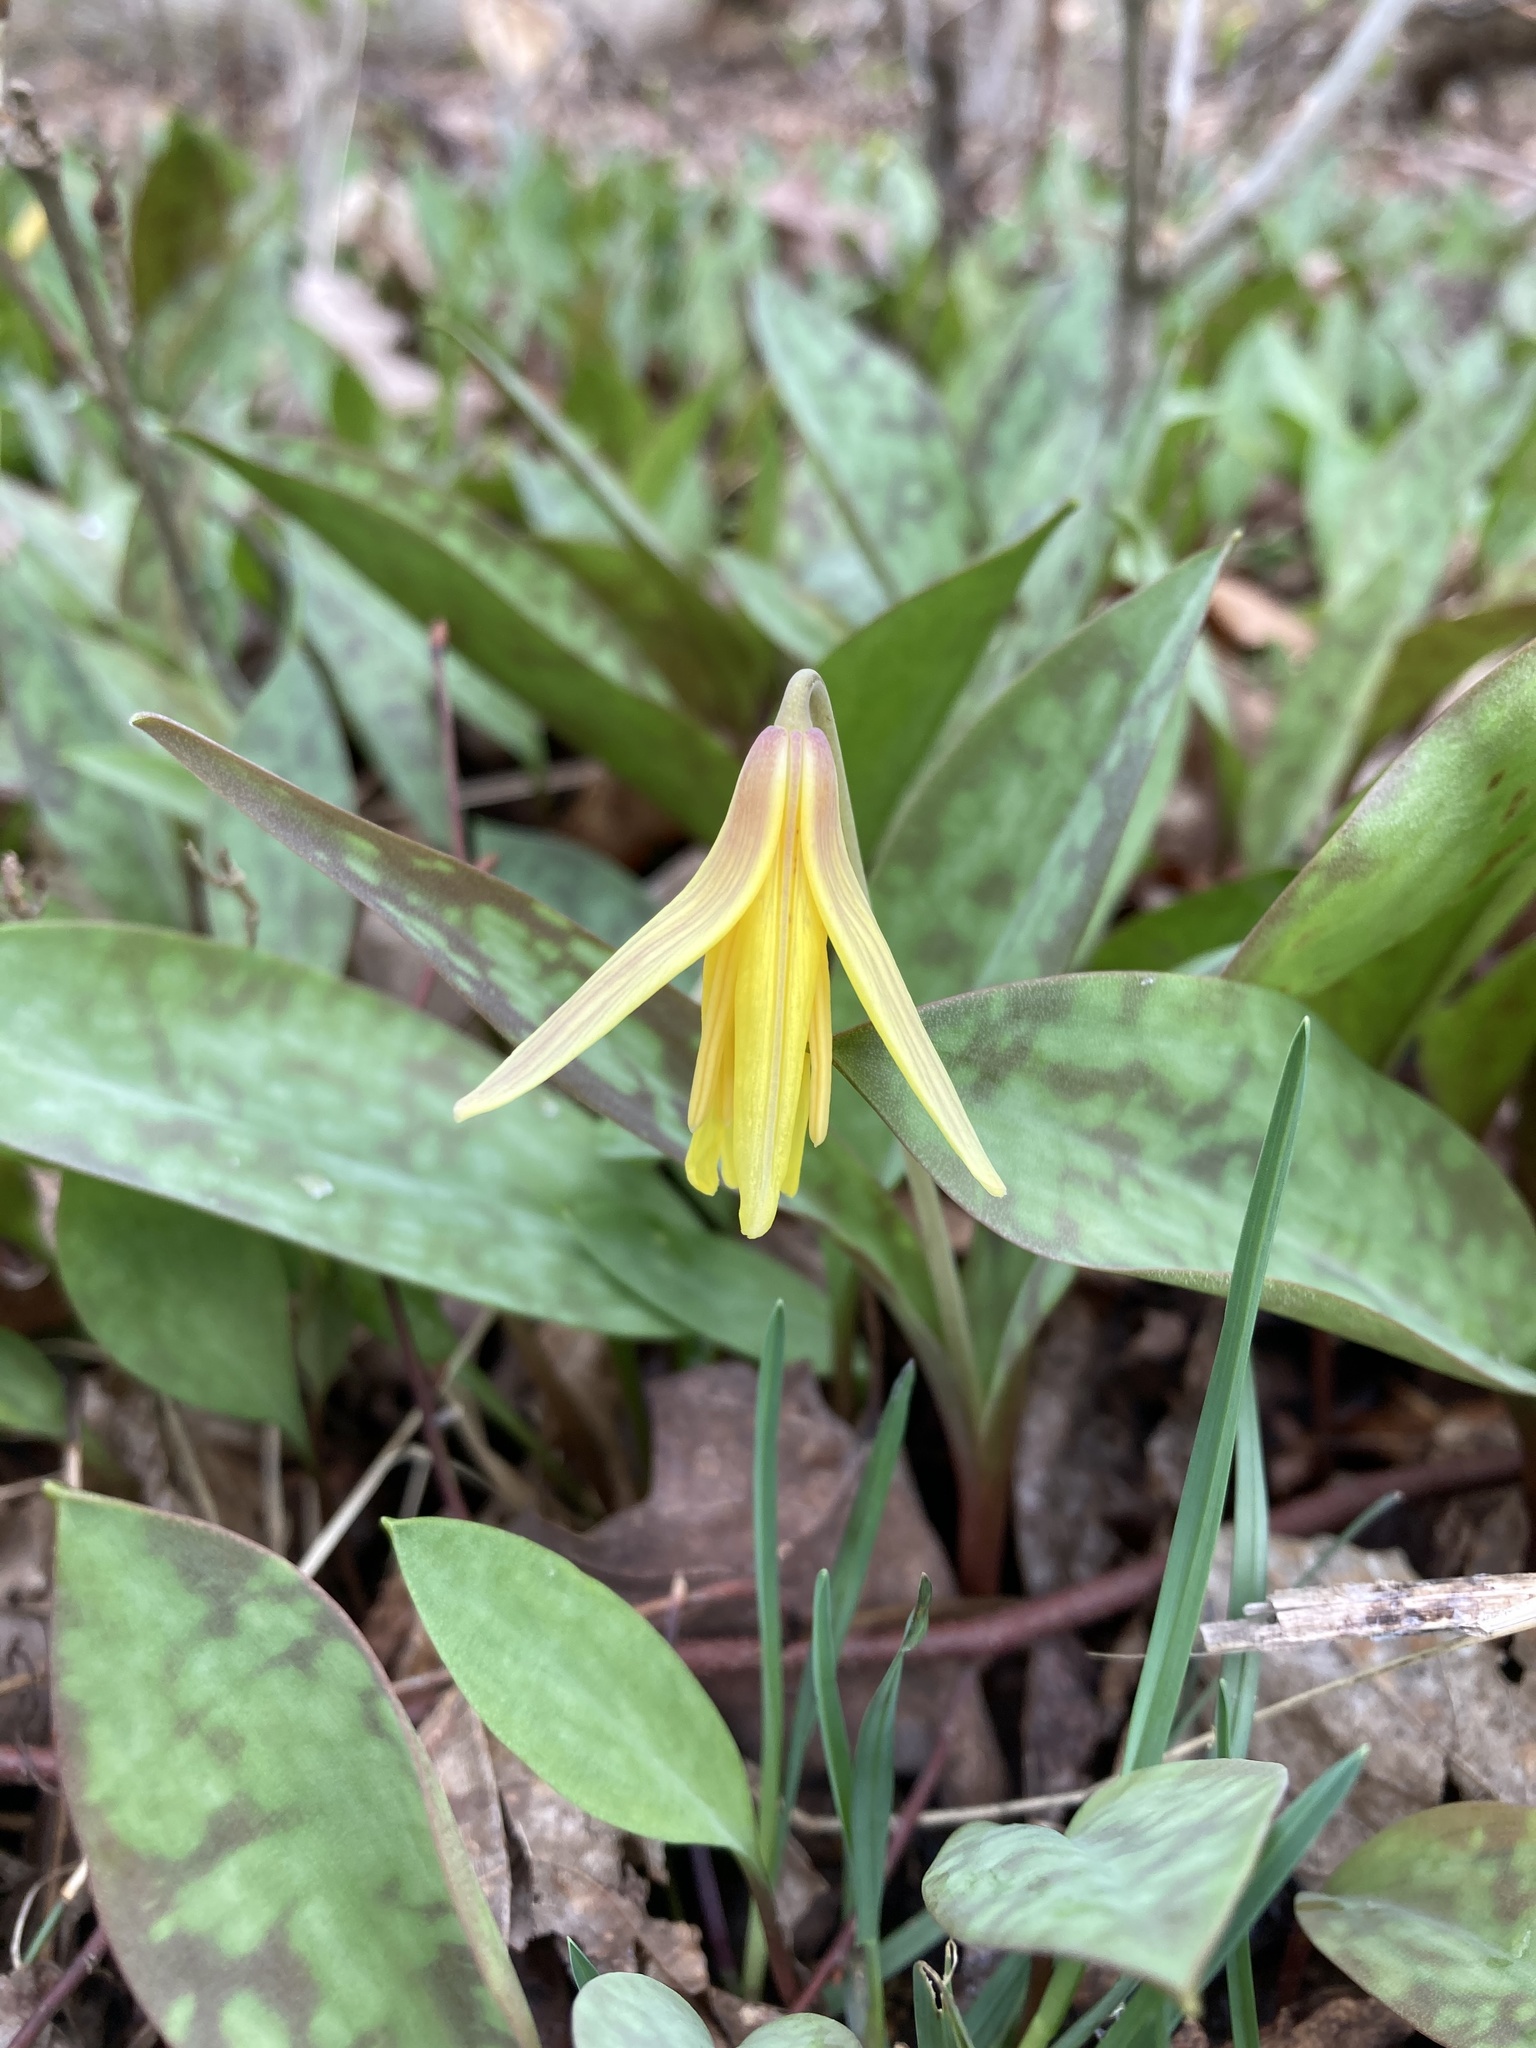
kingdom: Plantae
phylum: Tracheophyta
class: Liliopsida
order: Liliales
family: Liliaceae
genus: Erythronium
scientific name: Erythronium americanum
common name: Yellow adder's-tongue
